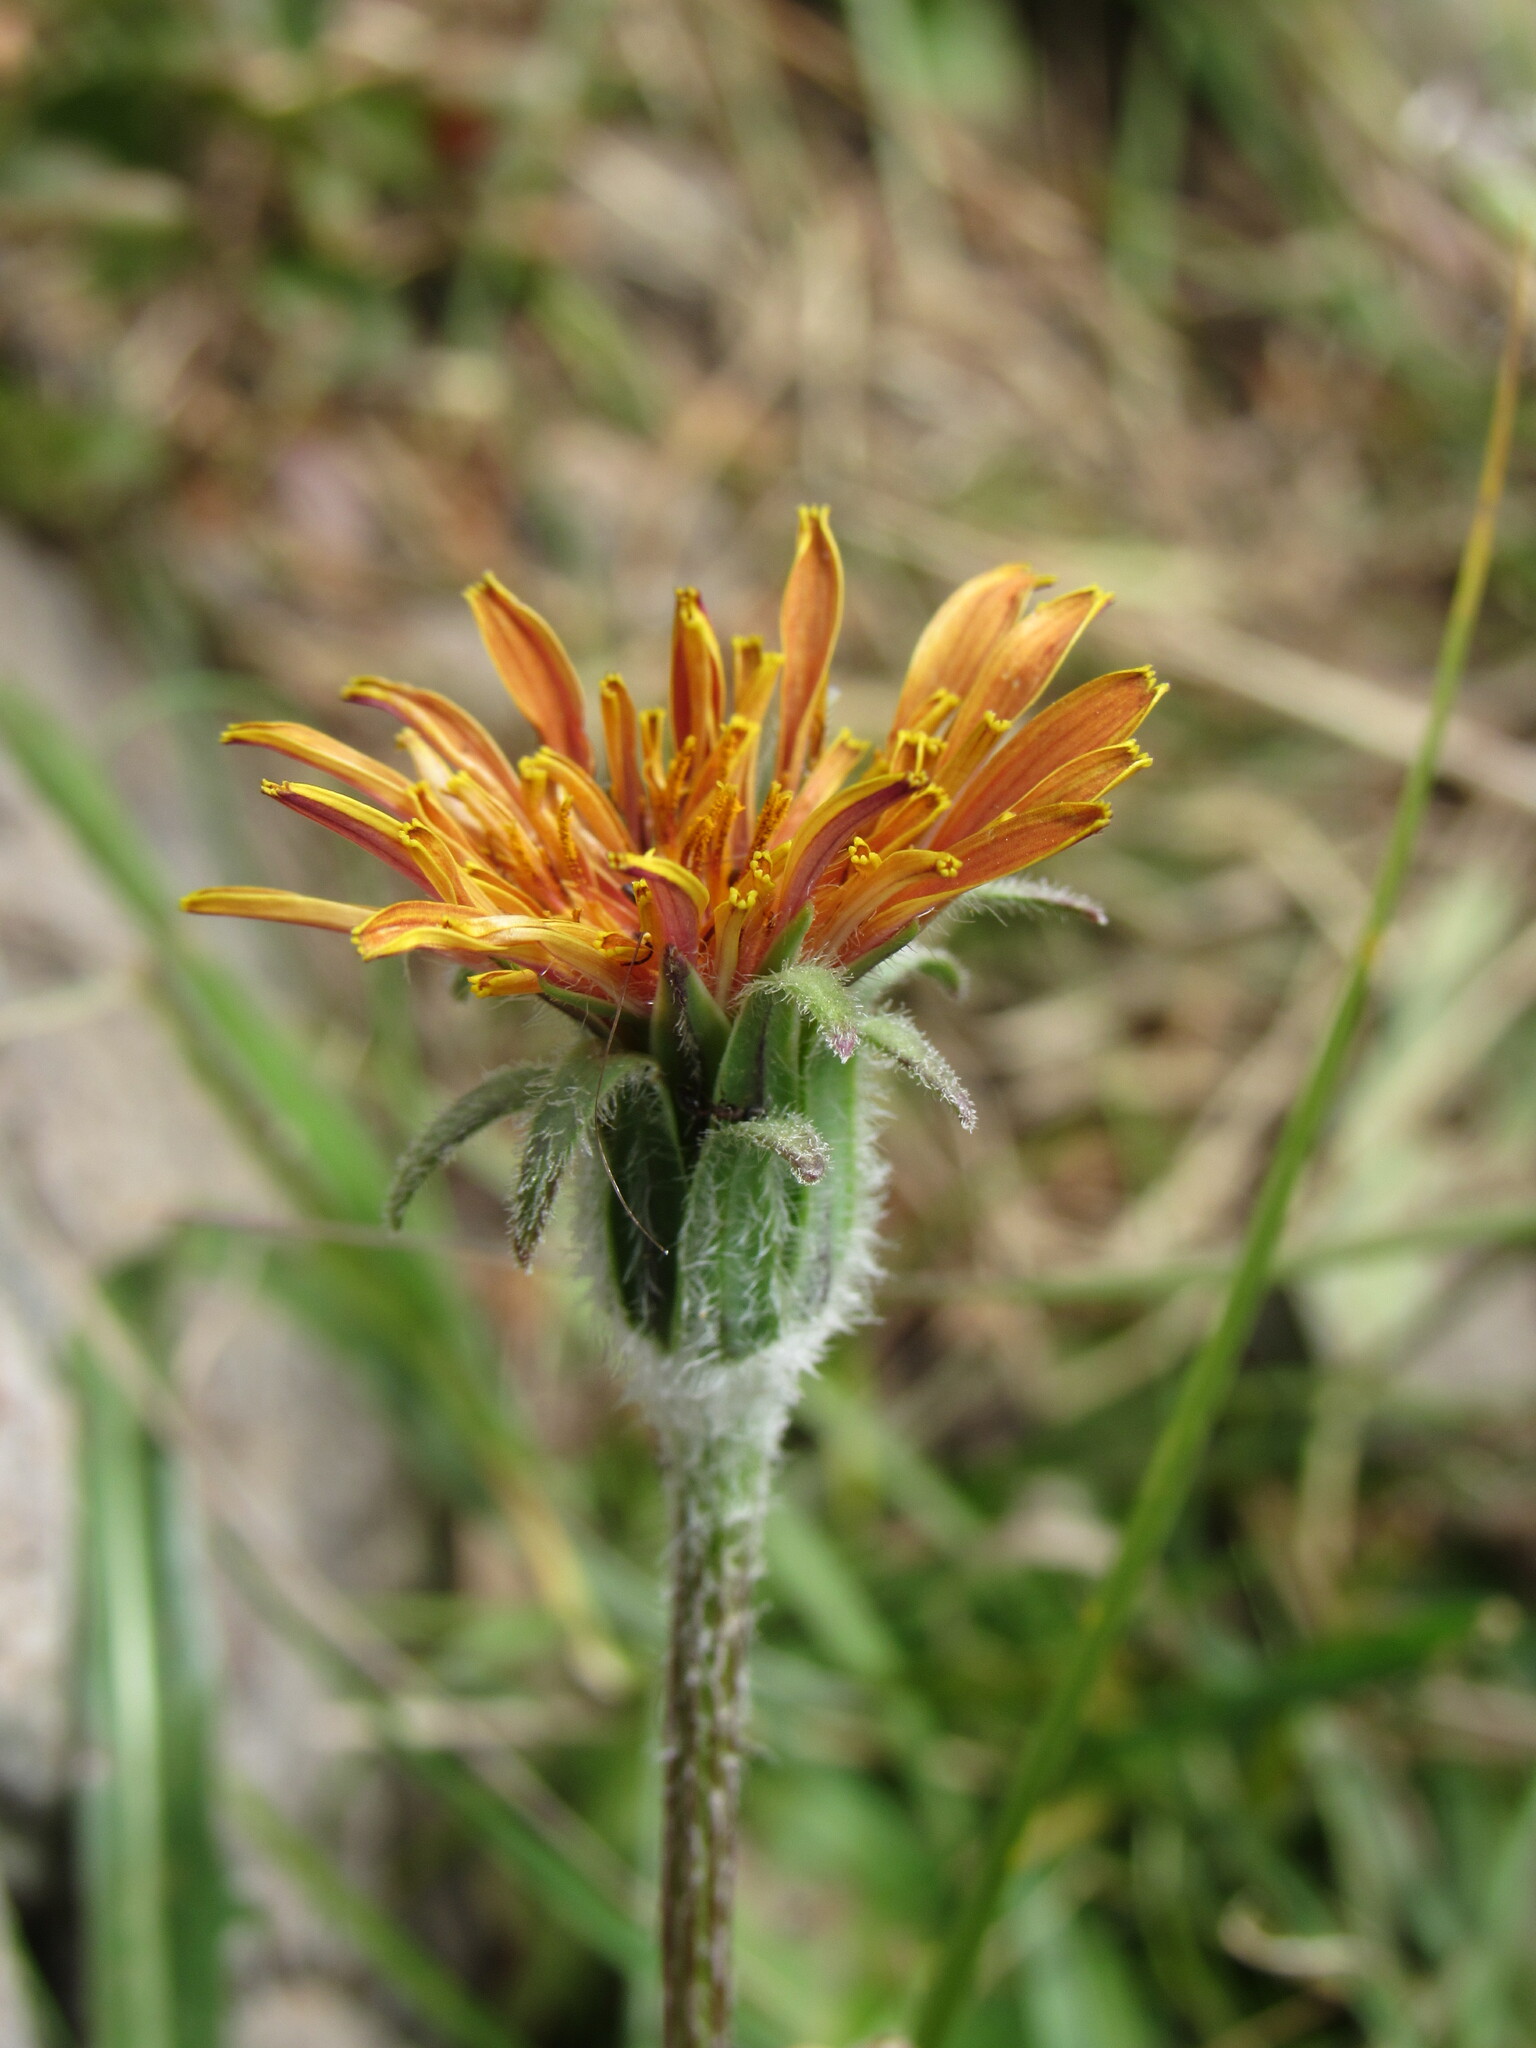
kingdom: Plantae
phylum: Tracheophyta
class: Magnoliopsida
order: Asterales
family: Asteraceae
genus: Agoseris
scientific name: Agoseris aurantiaca
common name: Mountain agoseris
